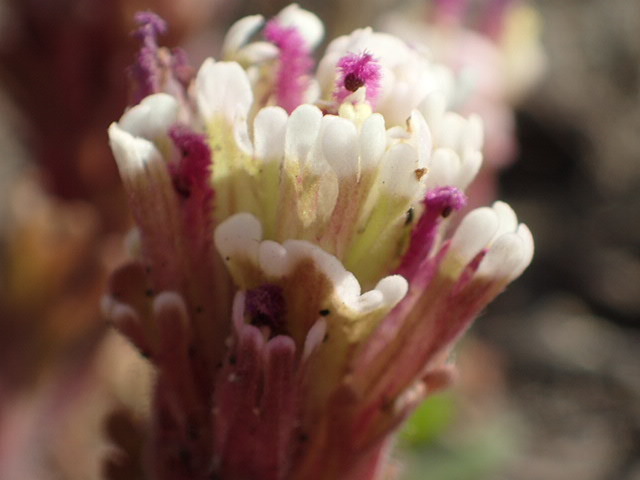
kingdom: Plantae
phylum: Tracheophyta
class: Magnoliopsida
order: Lamiales
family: Orobanchaceae
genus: Castilleja
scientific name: Castilleja exserta
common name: Purple owl-clover
